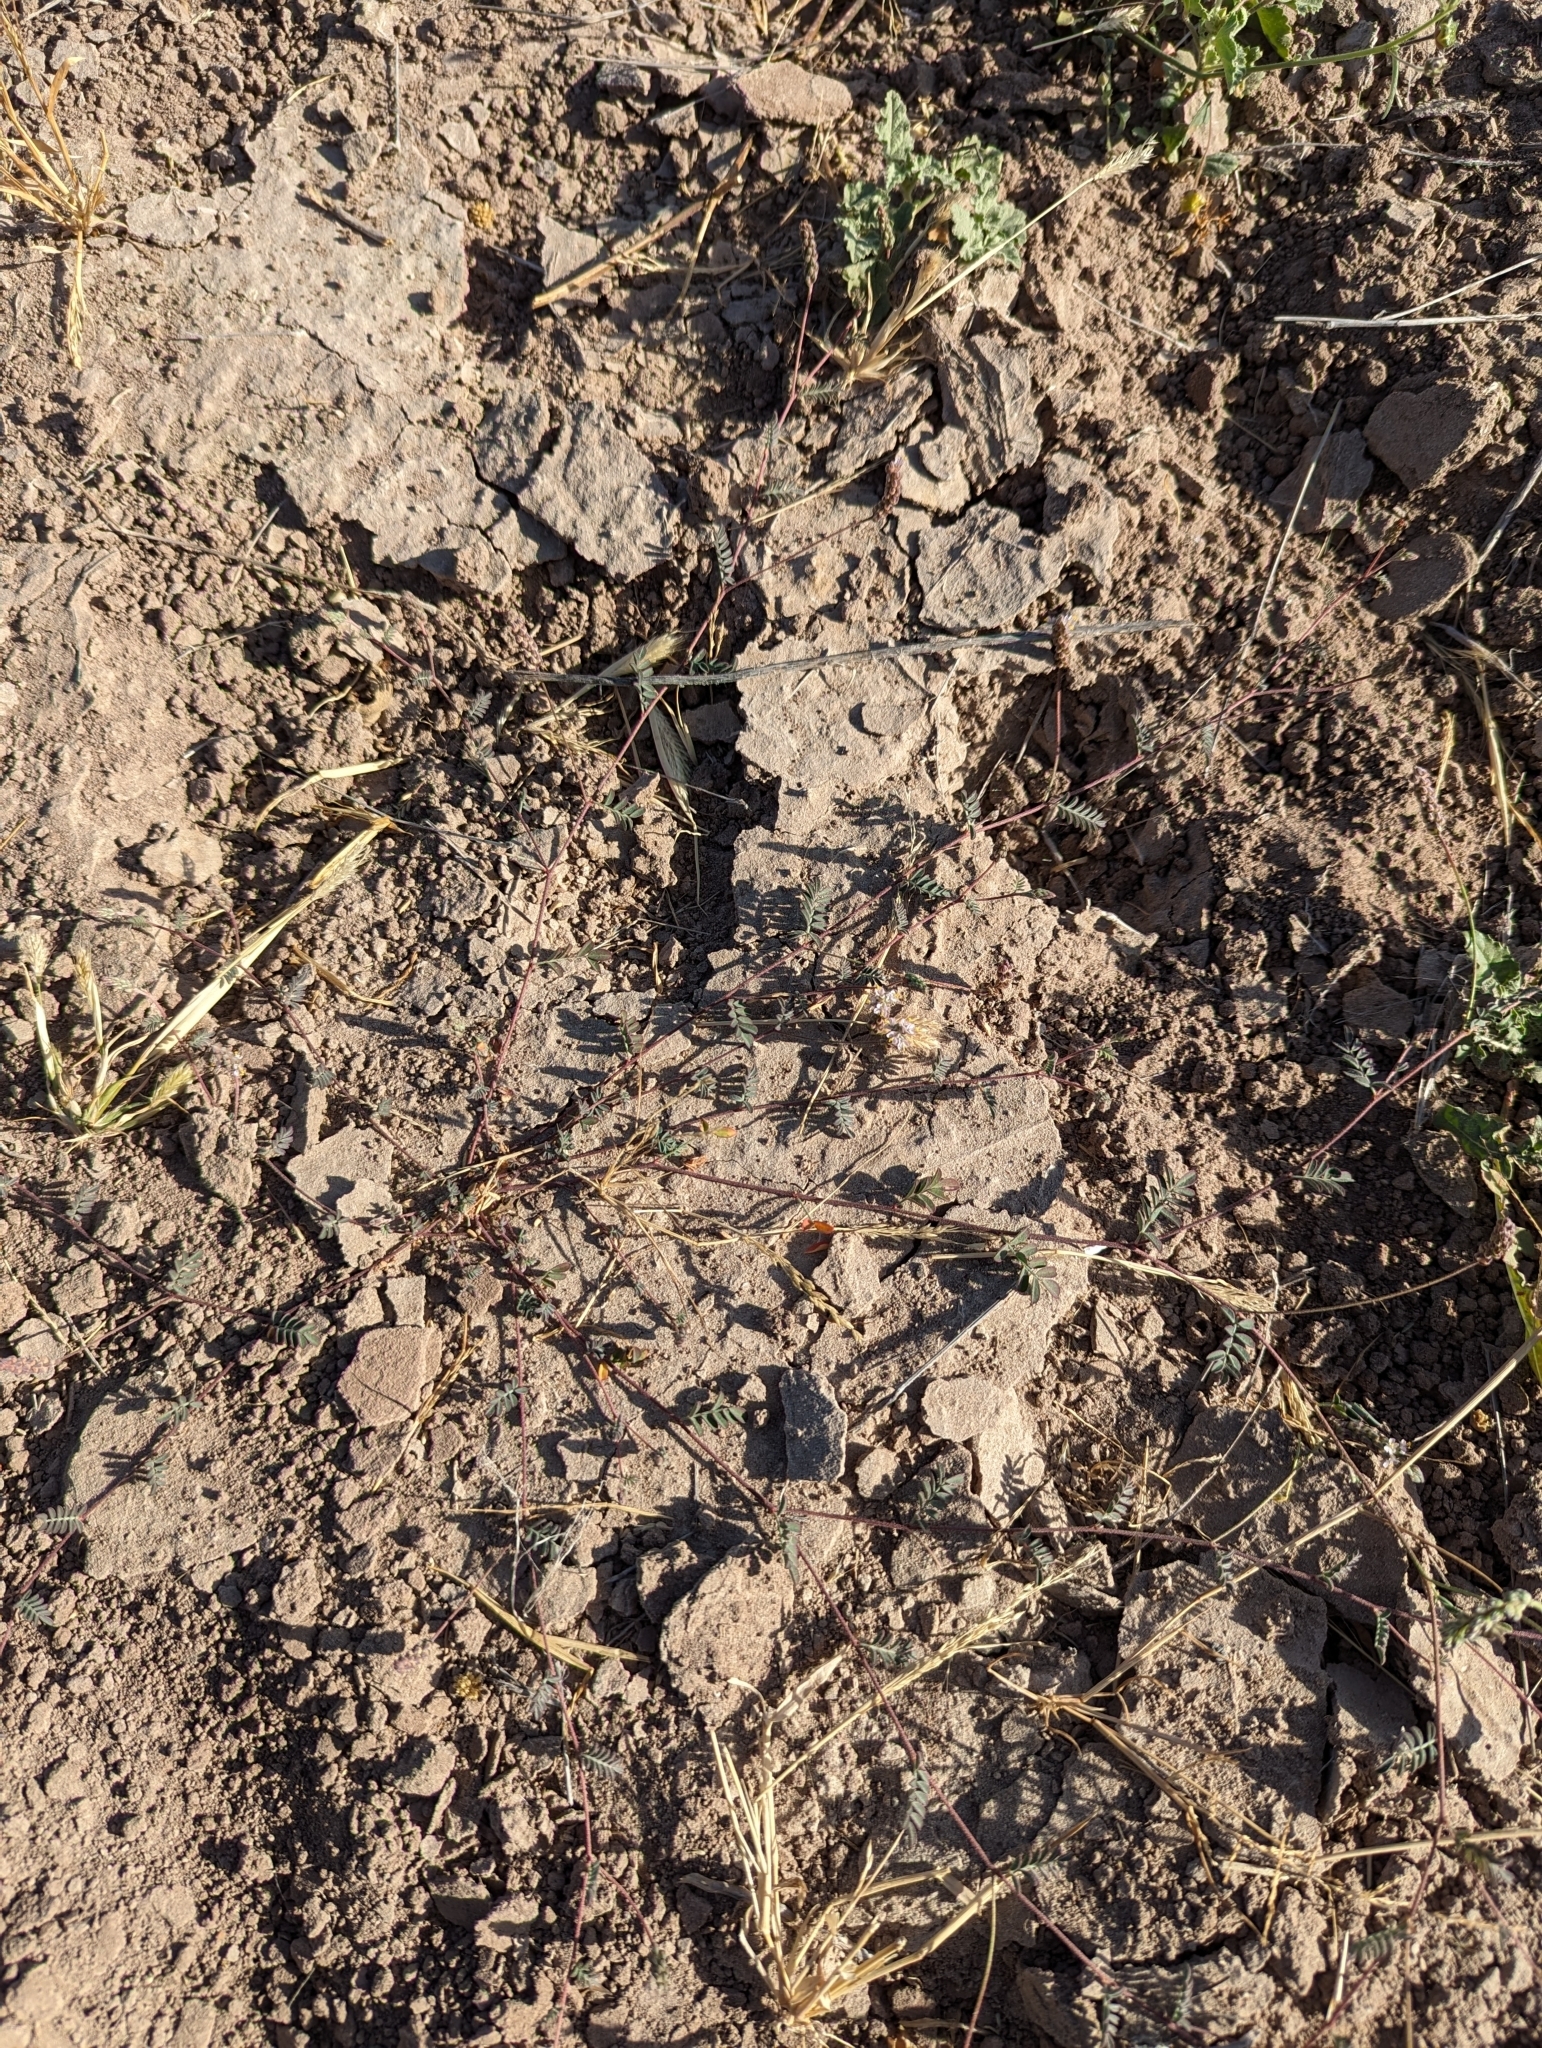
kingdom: Plantae
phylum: Tracheophyta
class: Magnoliopsida
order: Fabales
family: Fabaceae
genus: Marina
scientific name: Marina evanescens
